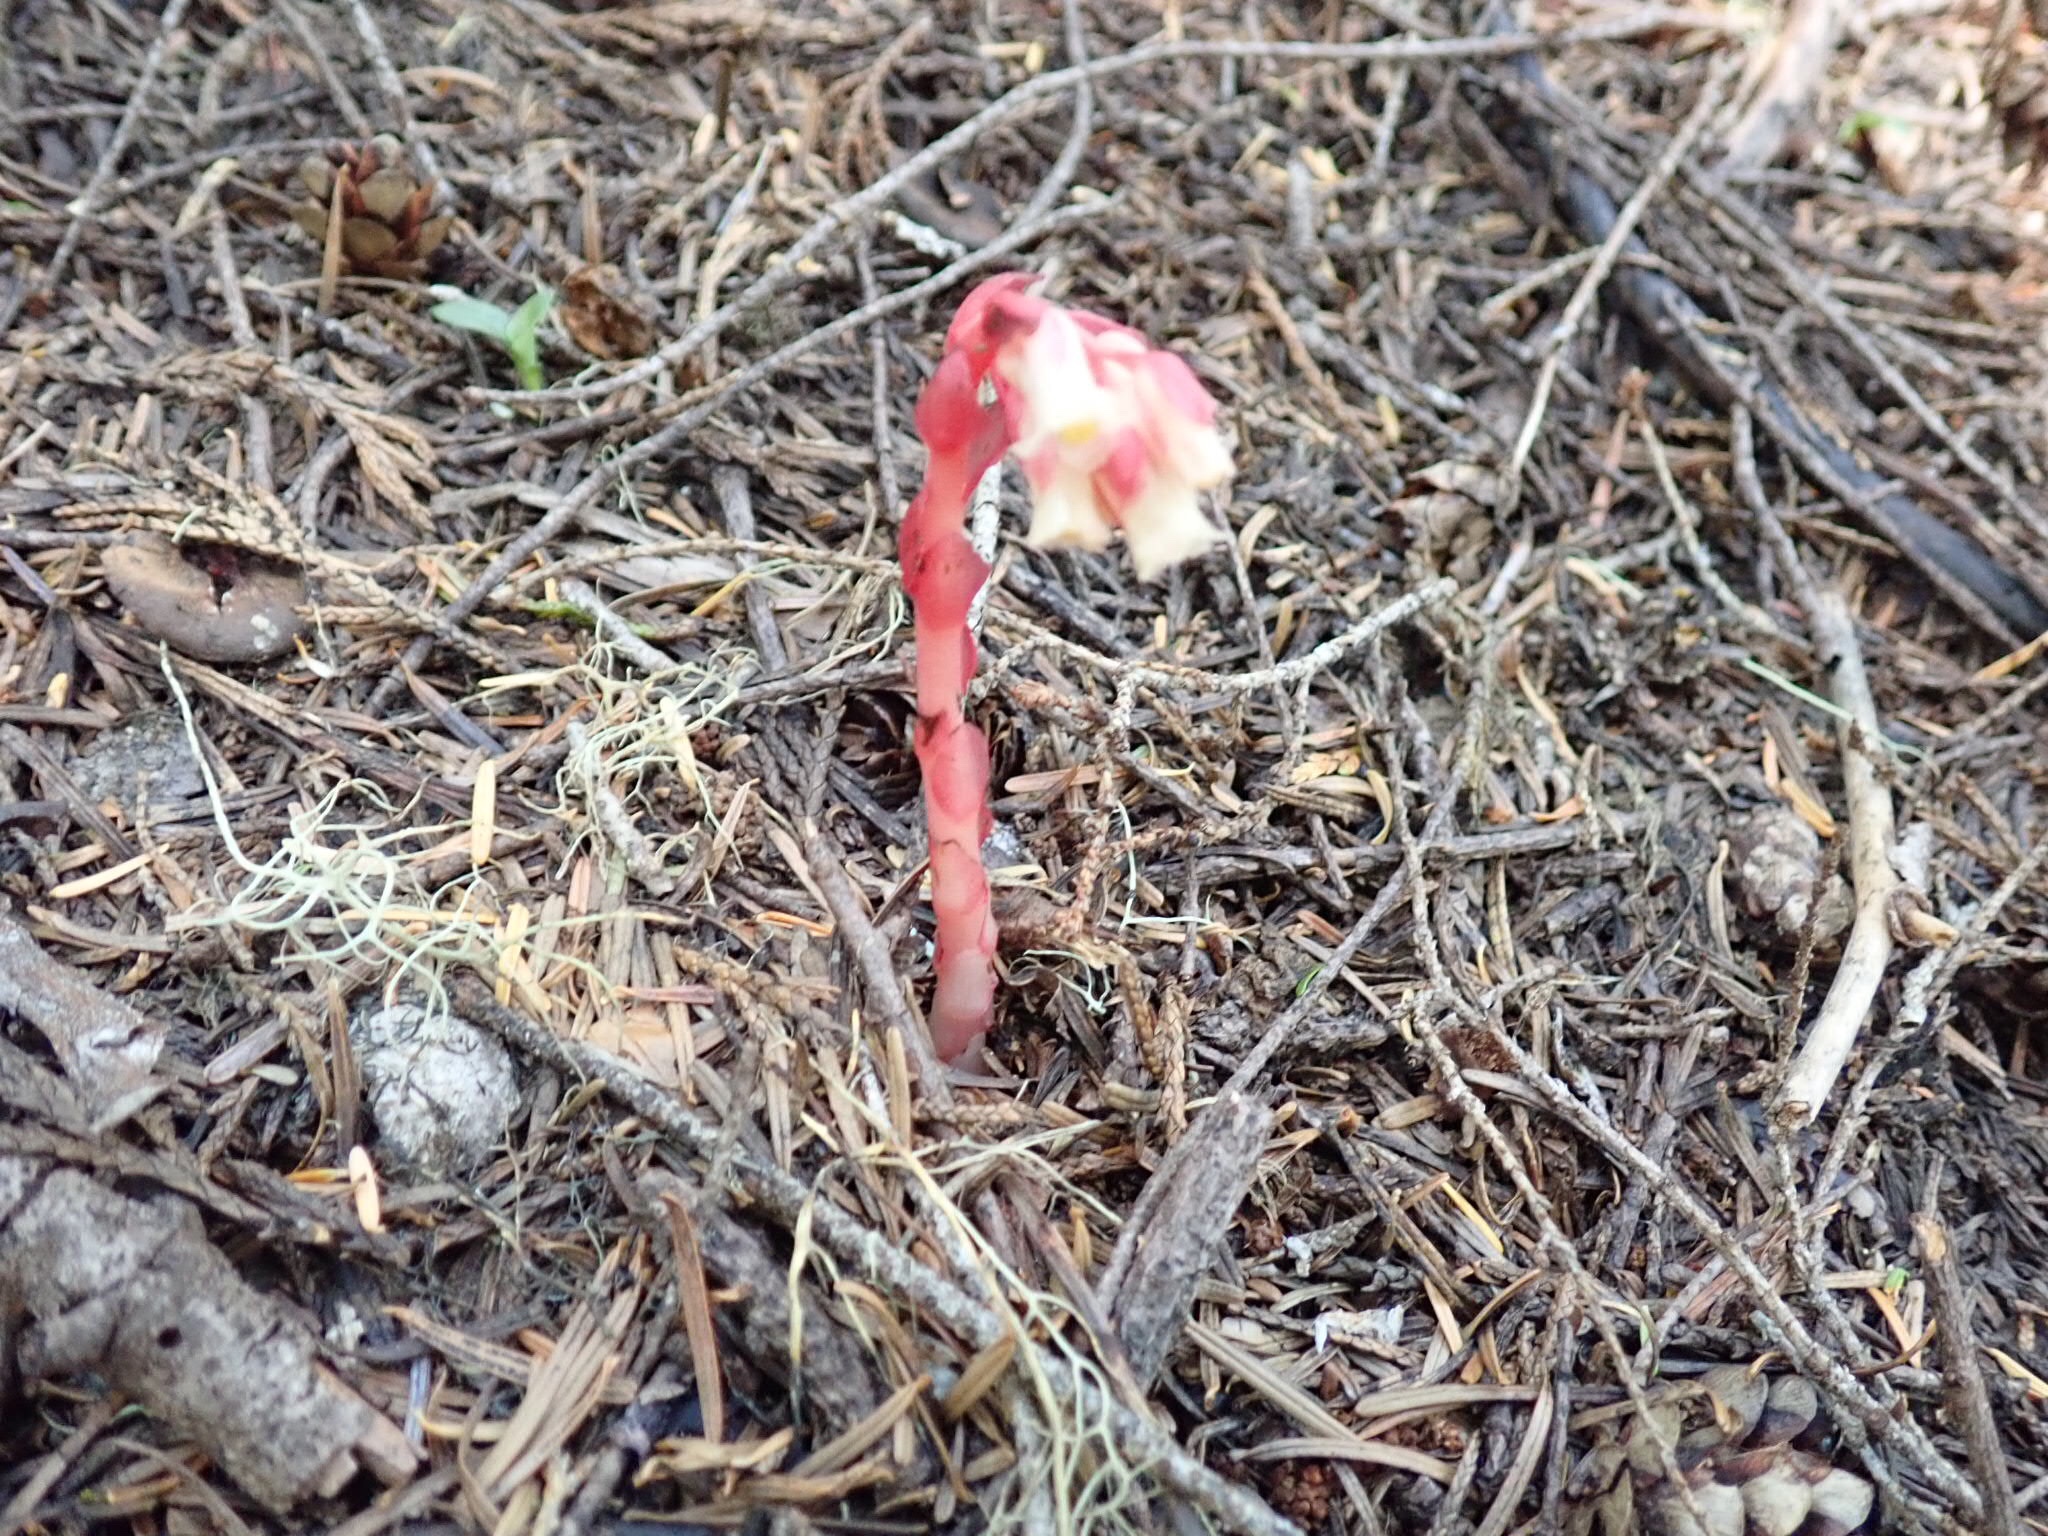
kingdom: Plantae
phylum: Tracheophyta
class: Magnoliopsida
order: Ericales
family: Ericaceae
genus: Hypopitys
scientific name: Hypopitys monotropa
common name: Yellow bird's-nest
